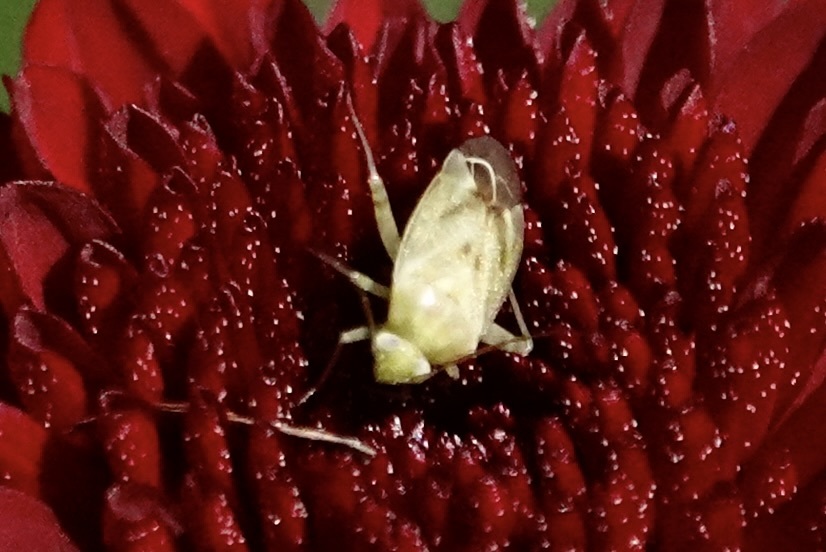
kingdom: Animalia
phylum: Arthropoda
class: Insecta
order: Hemiptera
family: Miridae
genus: Taylorilygus
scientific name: Taylorilygus apicalis
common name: Plant bug
